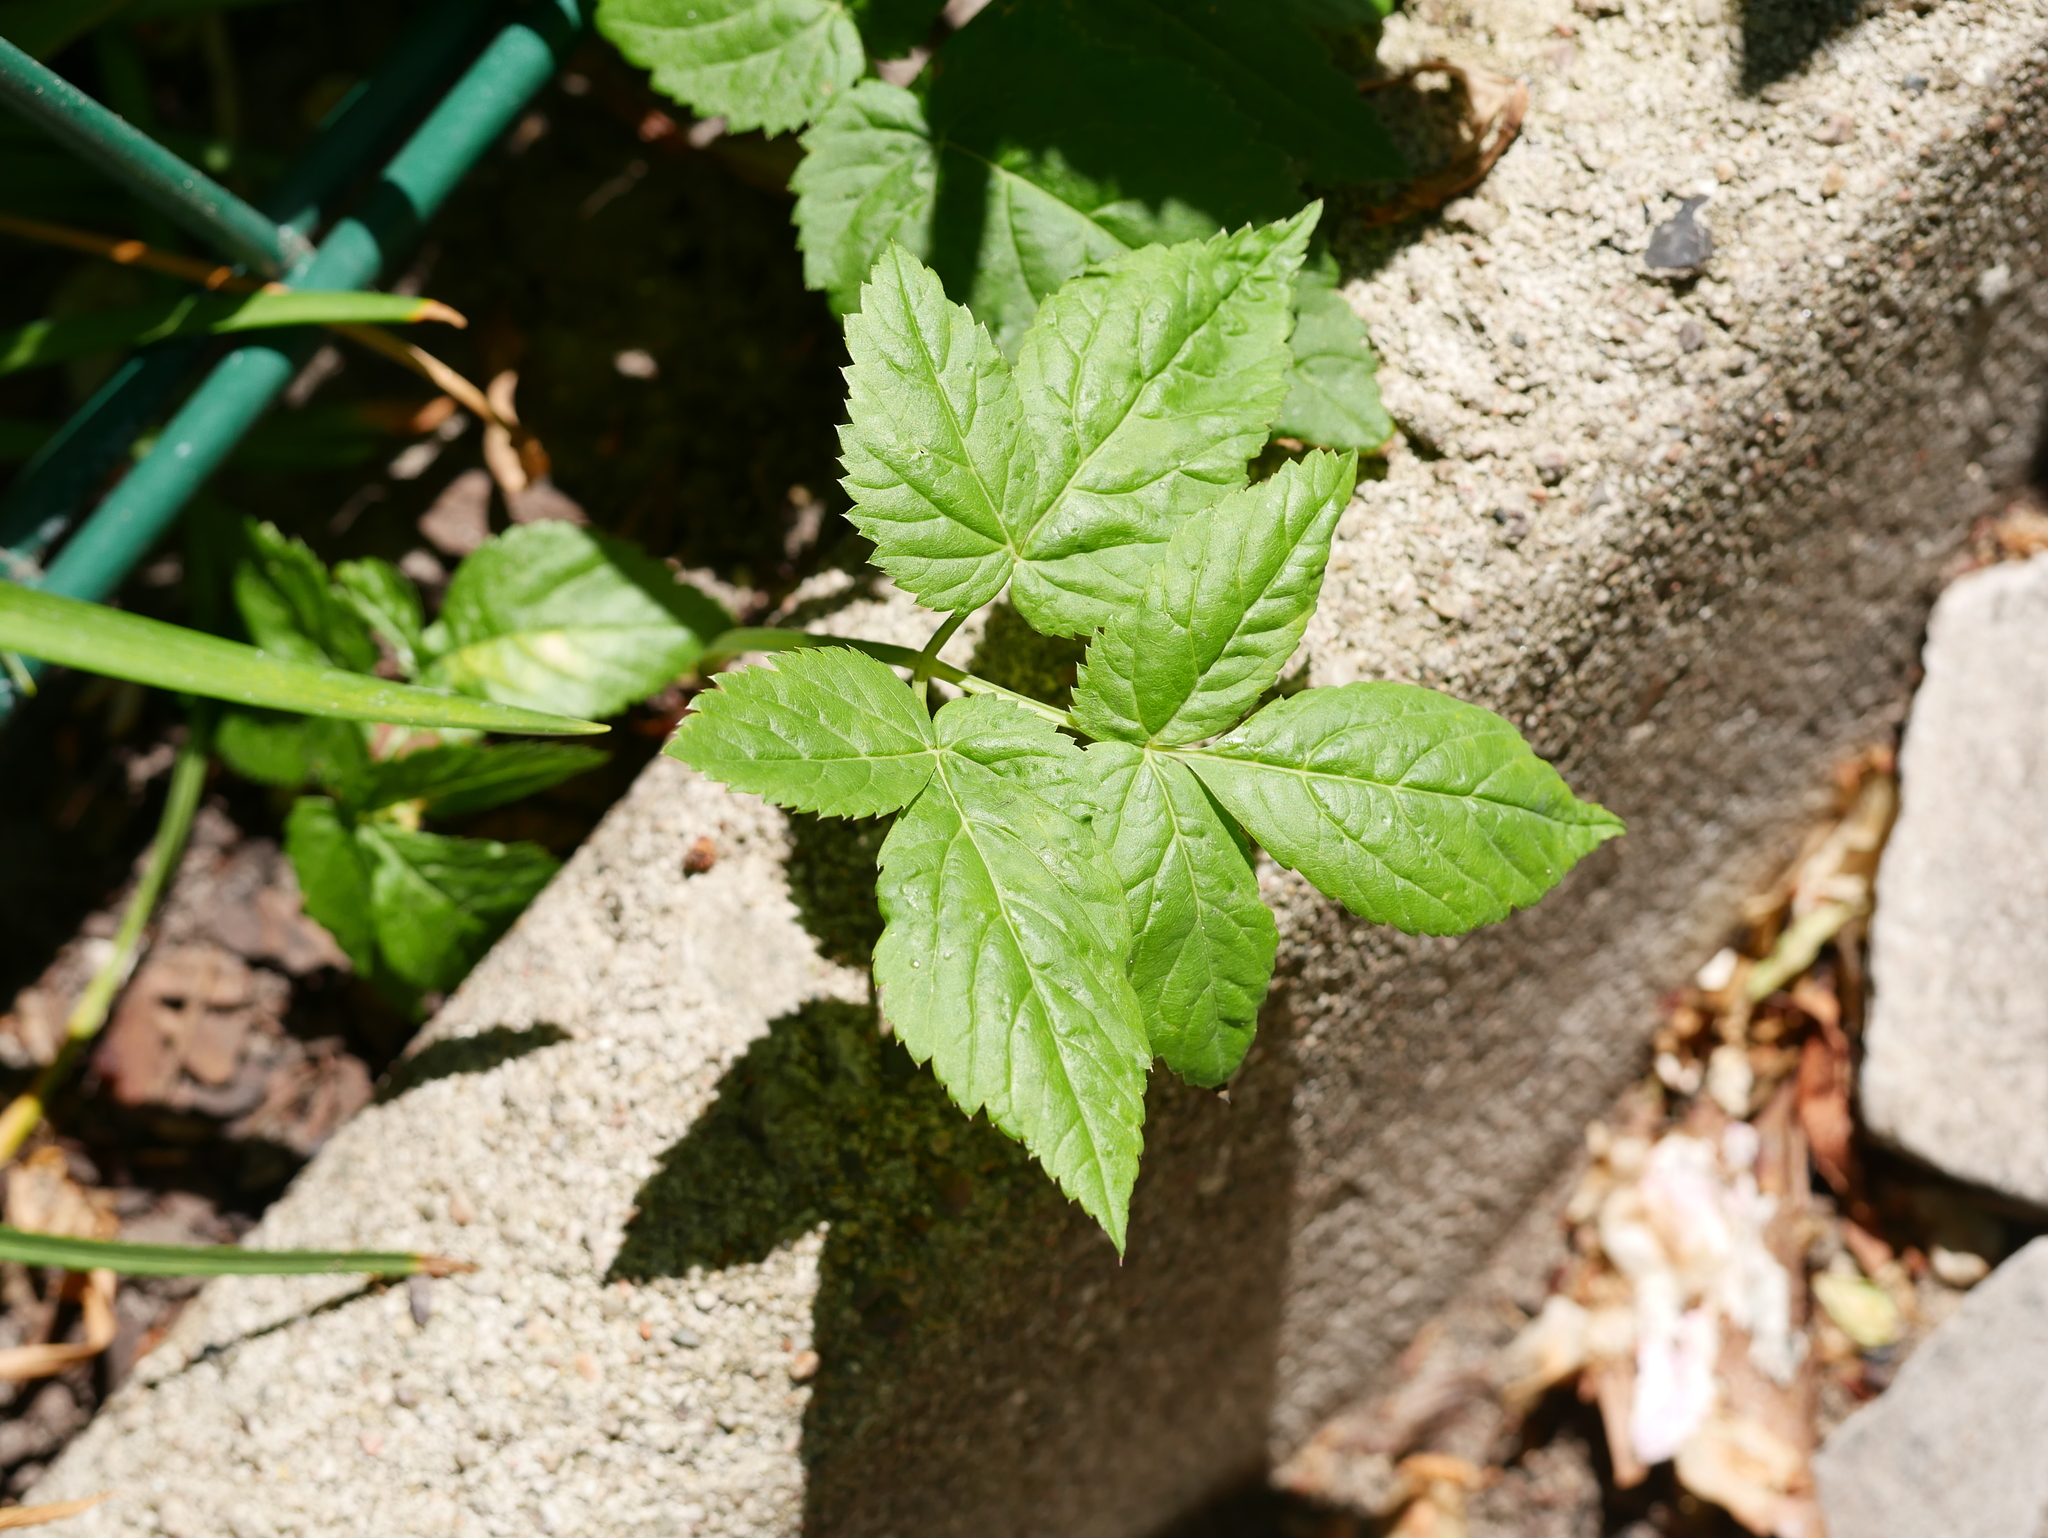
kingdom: Plantae
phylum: Tracheophyta
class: Magnoliopsida
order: Apiales
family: Apiaceae
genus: Aegopodium
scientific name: Aegopodium podagraria
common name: Ground-elder
